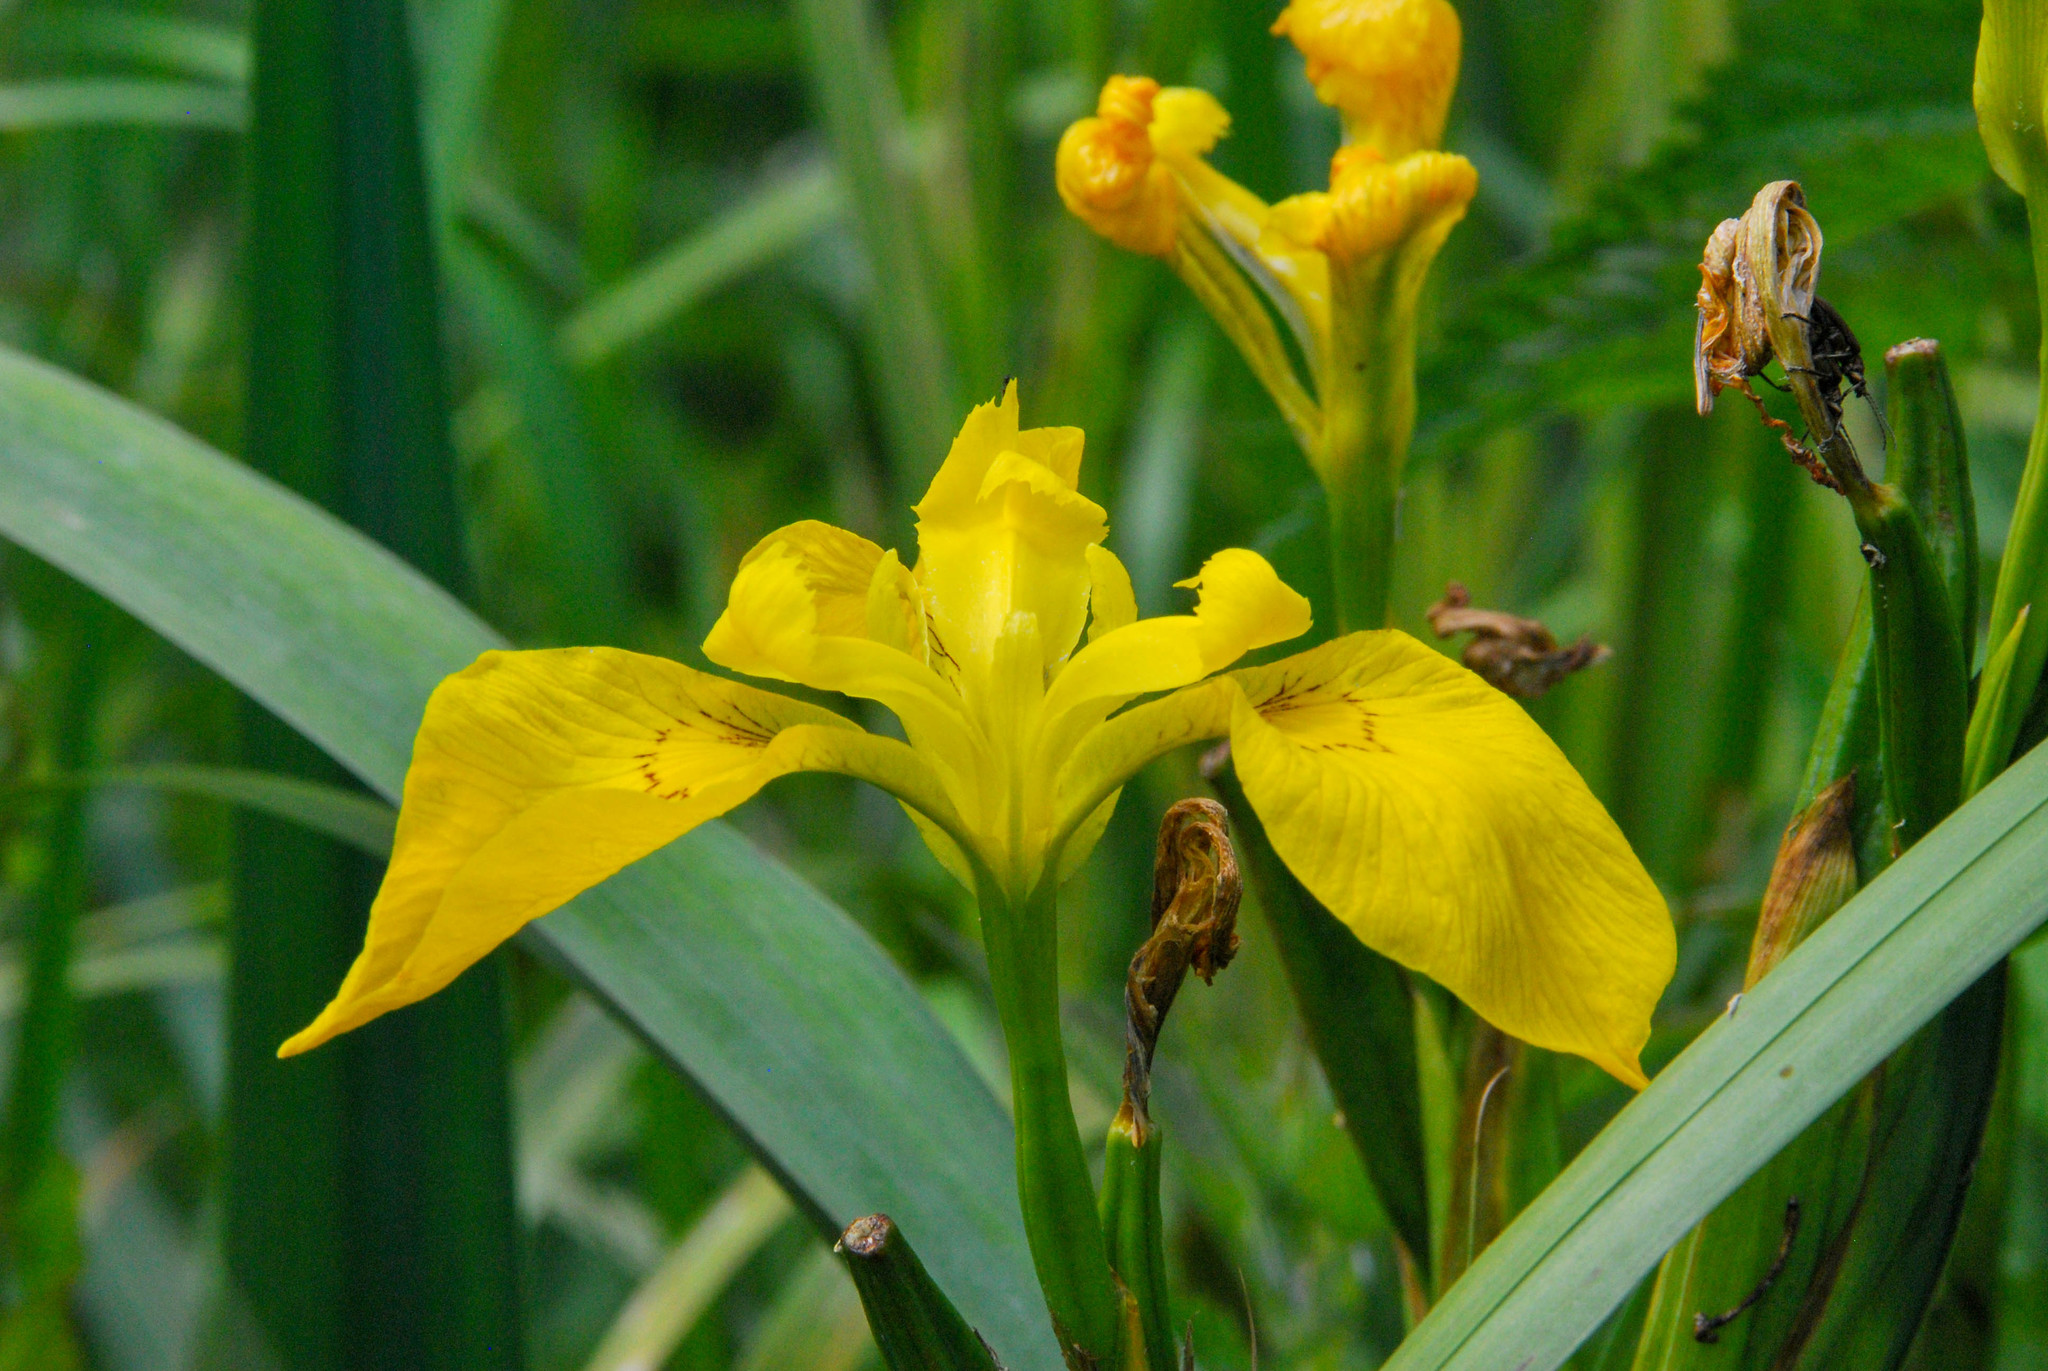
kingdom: Plantae
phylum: Tracheophyta
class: Liliopsida
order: Asparagales
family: Iridaceae
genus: Iris
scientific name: Iris pseudacorus
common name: Yellow flag
